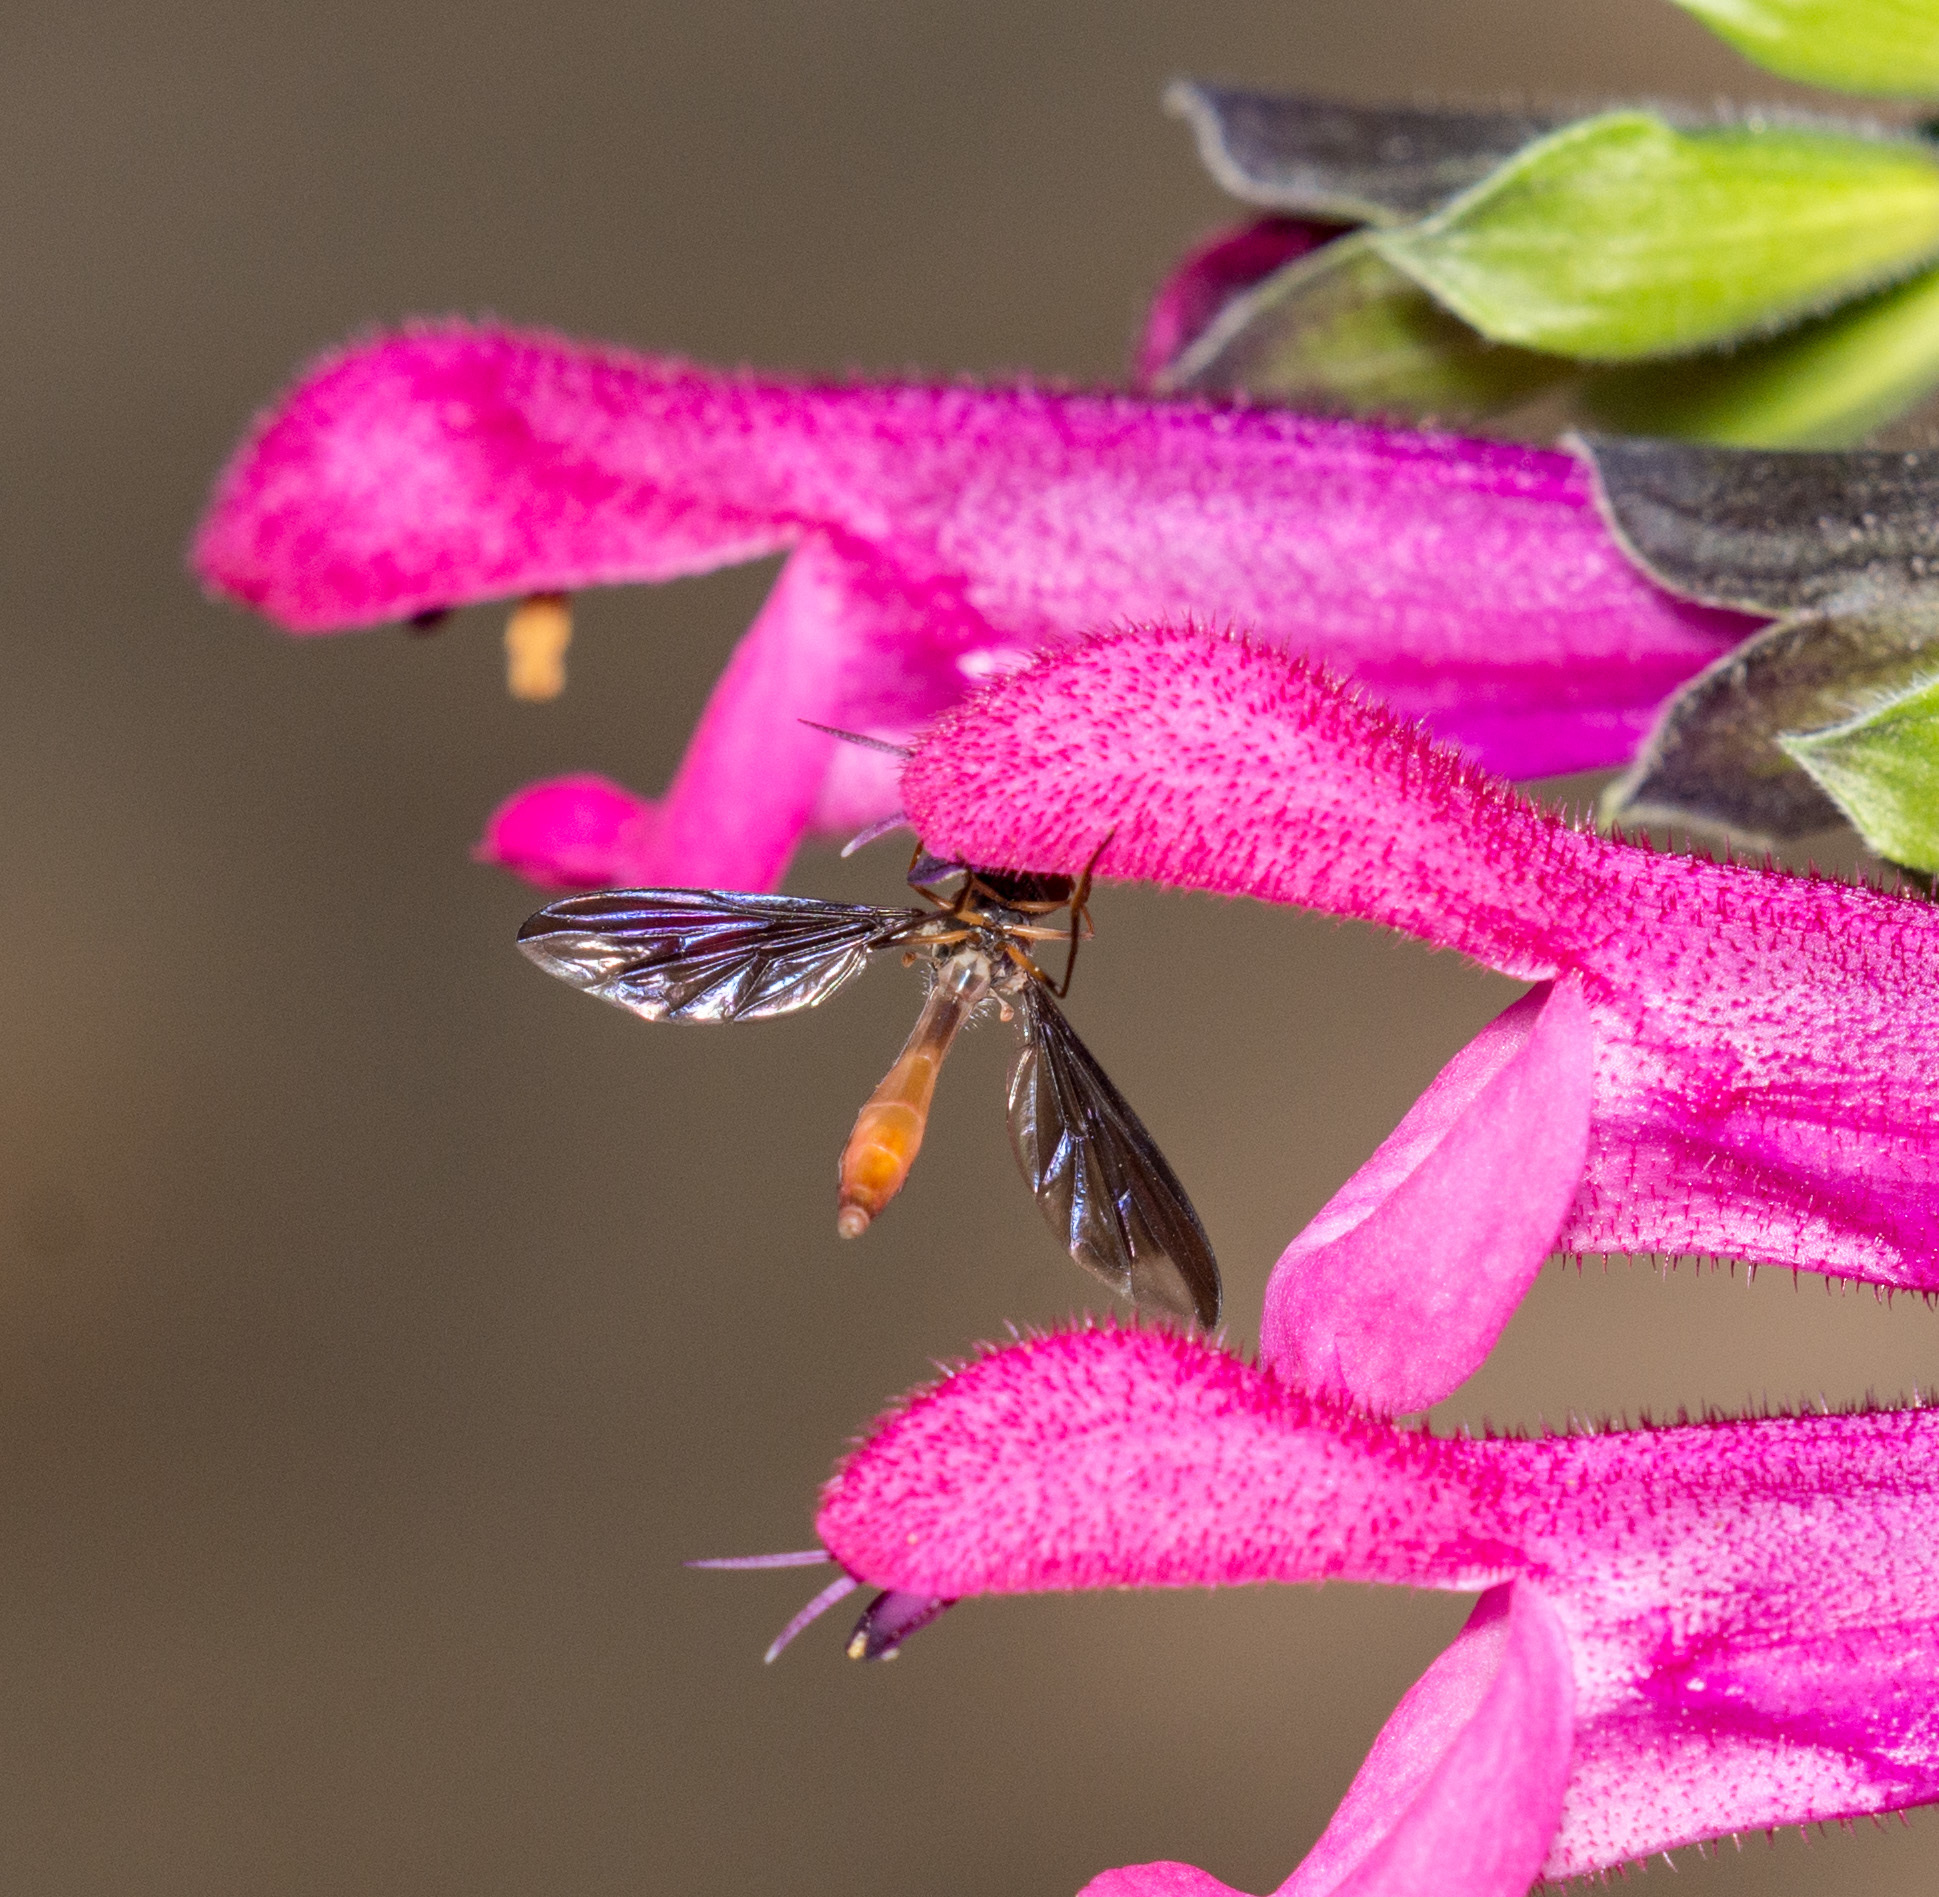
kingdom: Animalia
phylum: Arthropoda
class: Insecta
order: Diptera
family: Syrphidae
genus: Ocyptamus
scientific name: Ocyptamus fuscipennis
